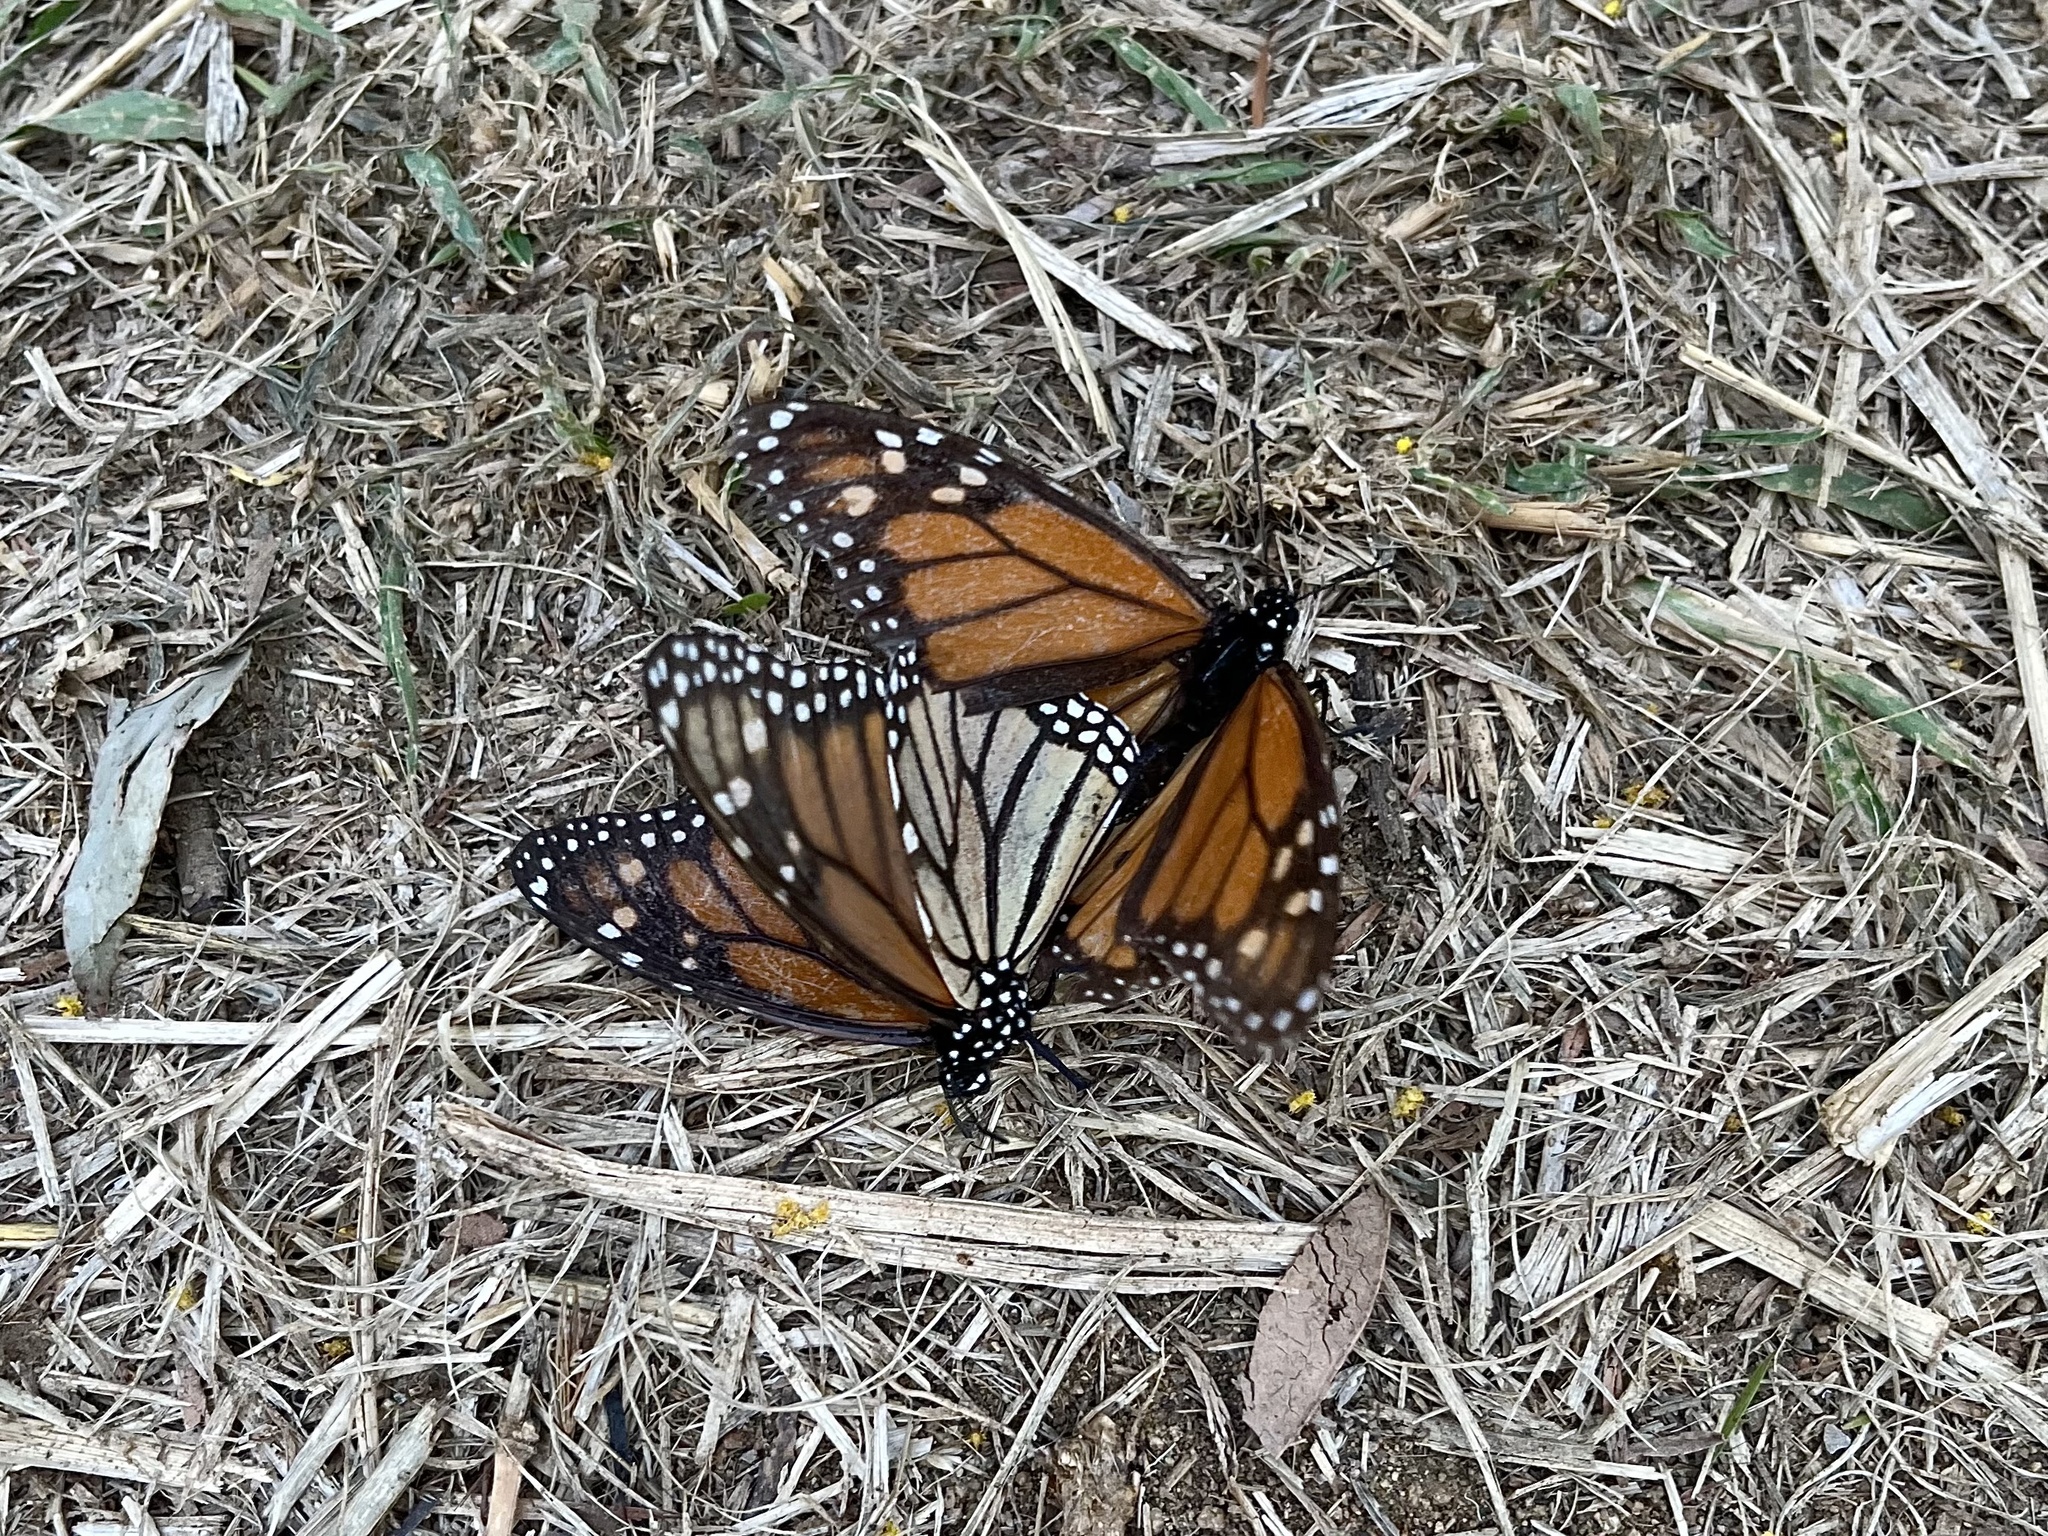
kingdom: Animalia
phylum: Arthropoda
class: Insecta
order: Lepidoptera
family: Nymphalidae
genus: Danaus
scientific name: Danaus plexippus
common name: Monarch
